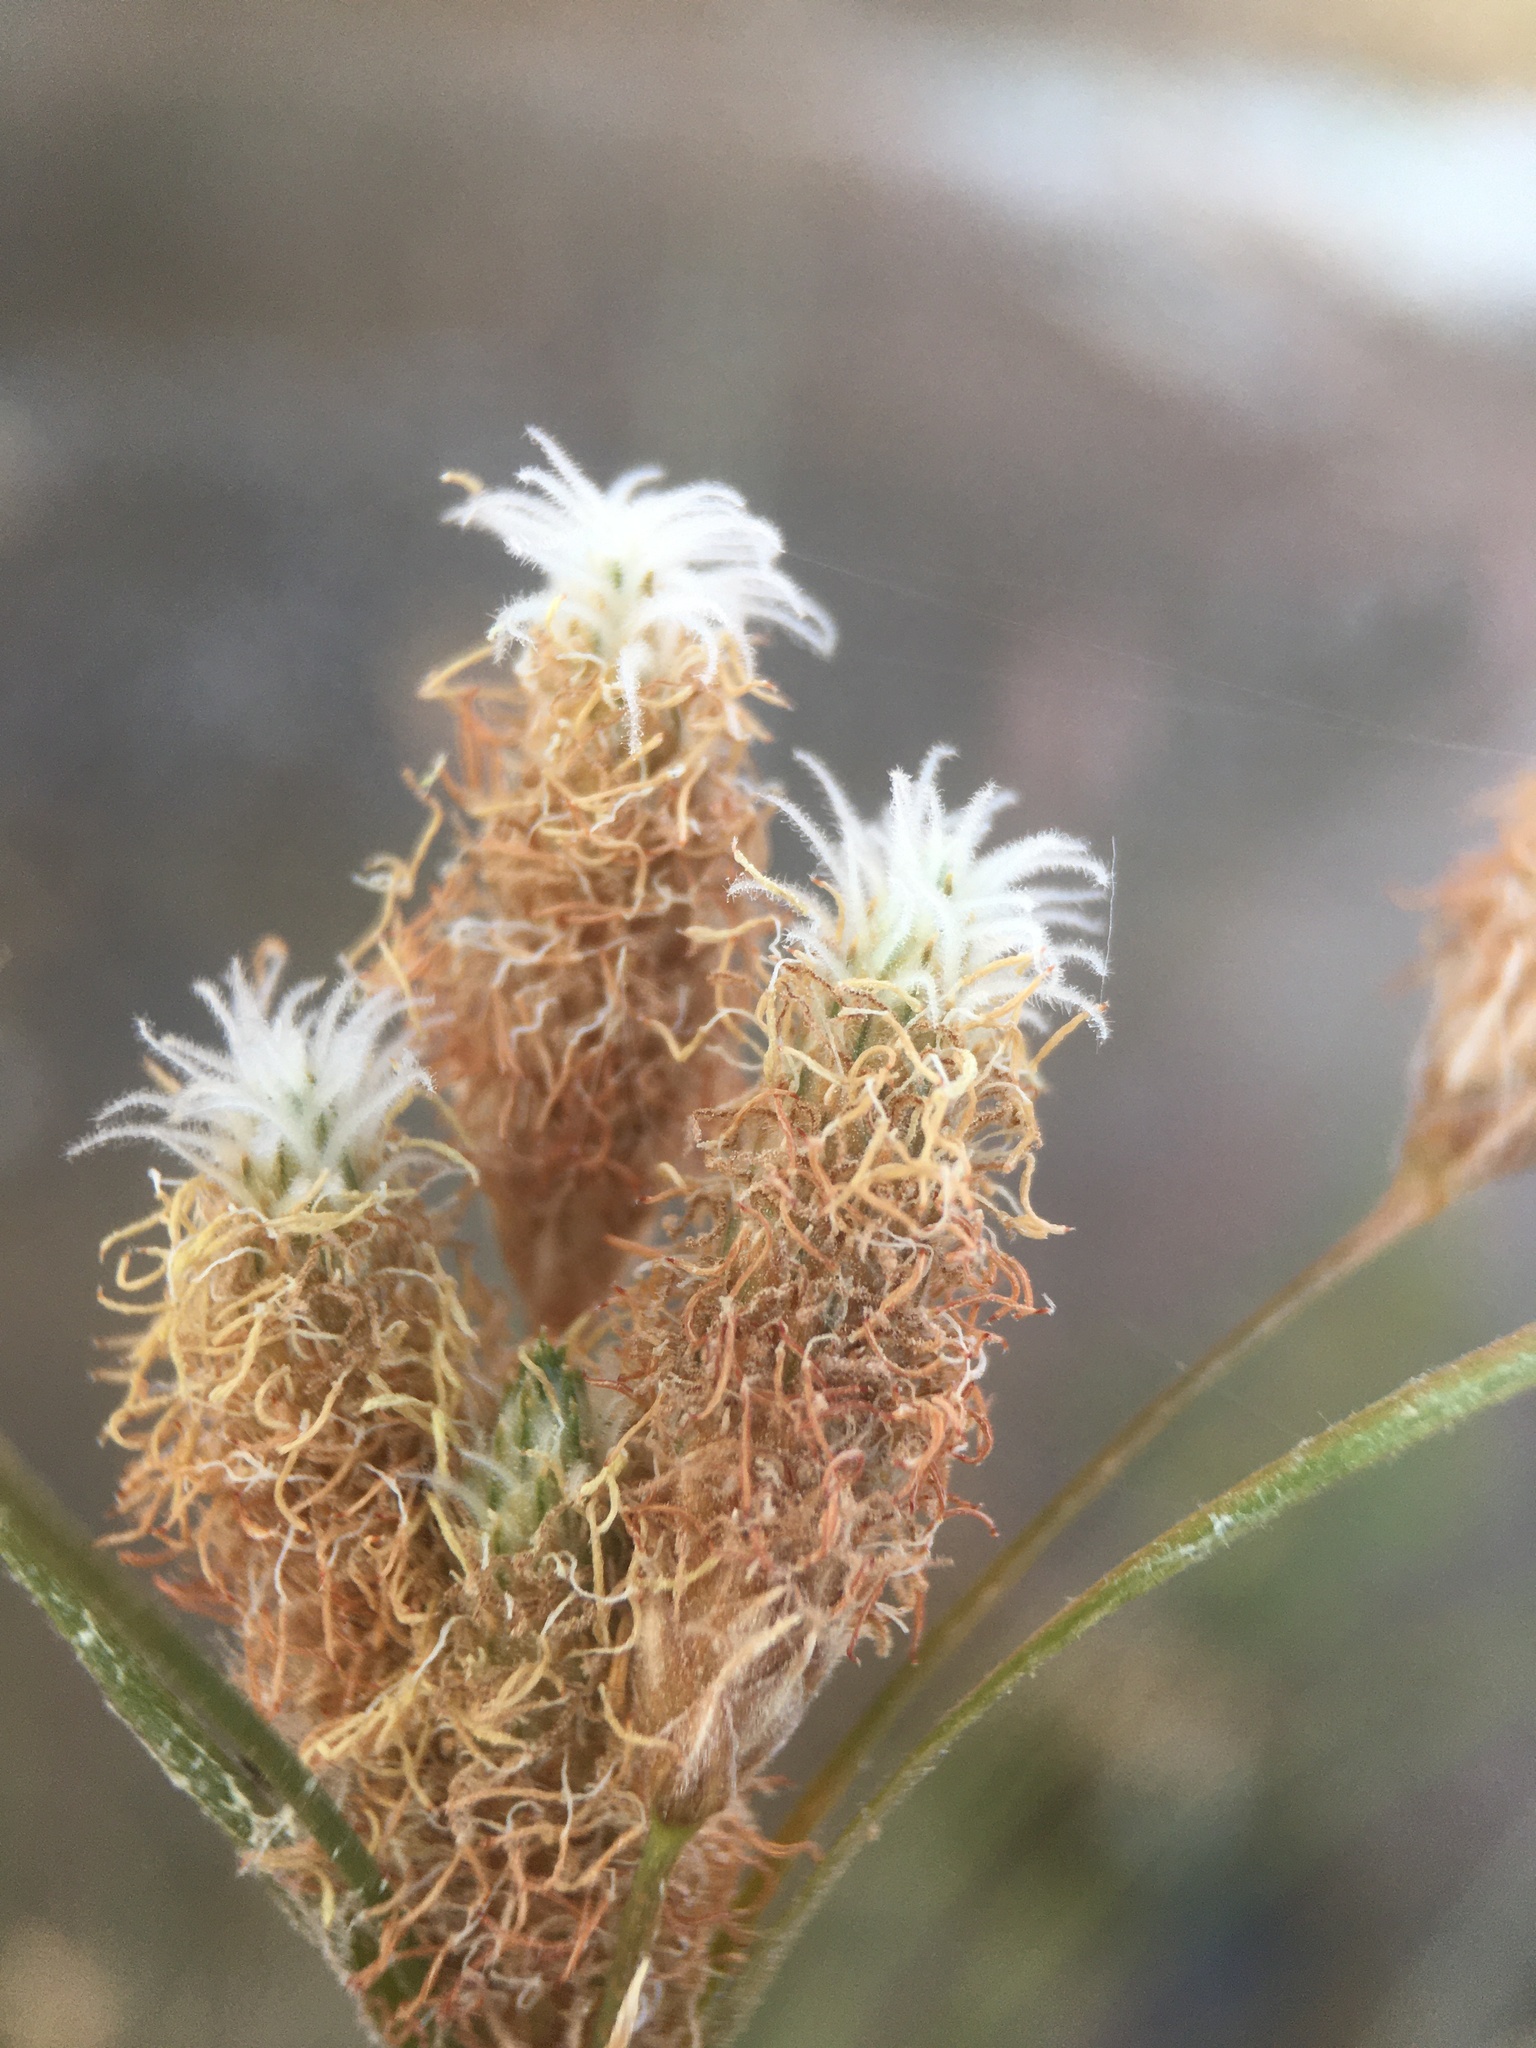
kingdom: Plantae
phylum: Tracheophyta
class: Liliopsida
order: Poales
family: Cyperaceae
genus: Fimbristylis
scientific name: Fimbristylis thermalis
